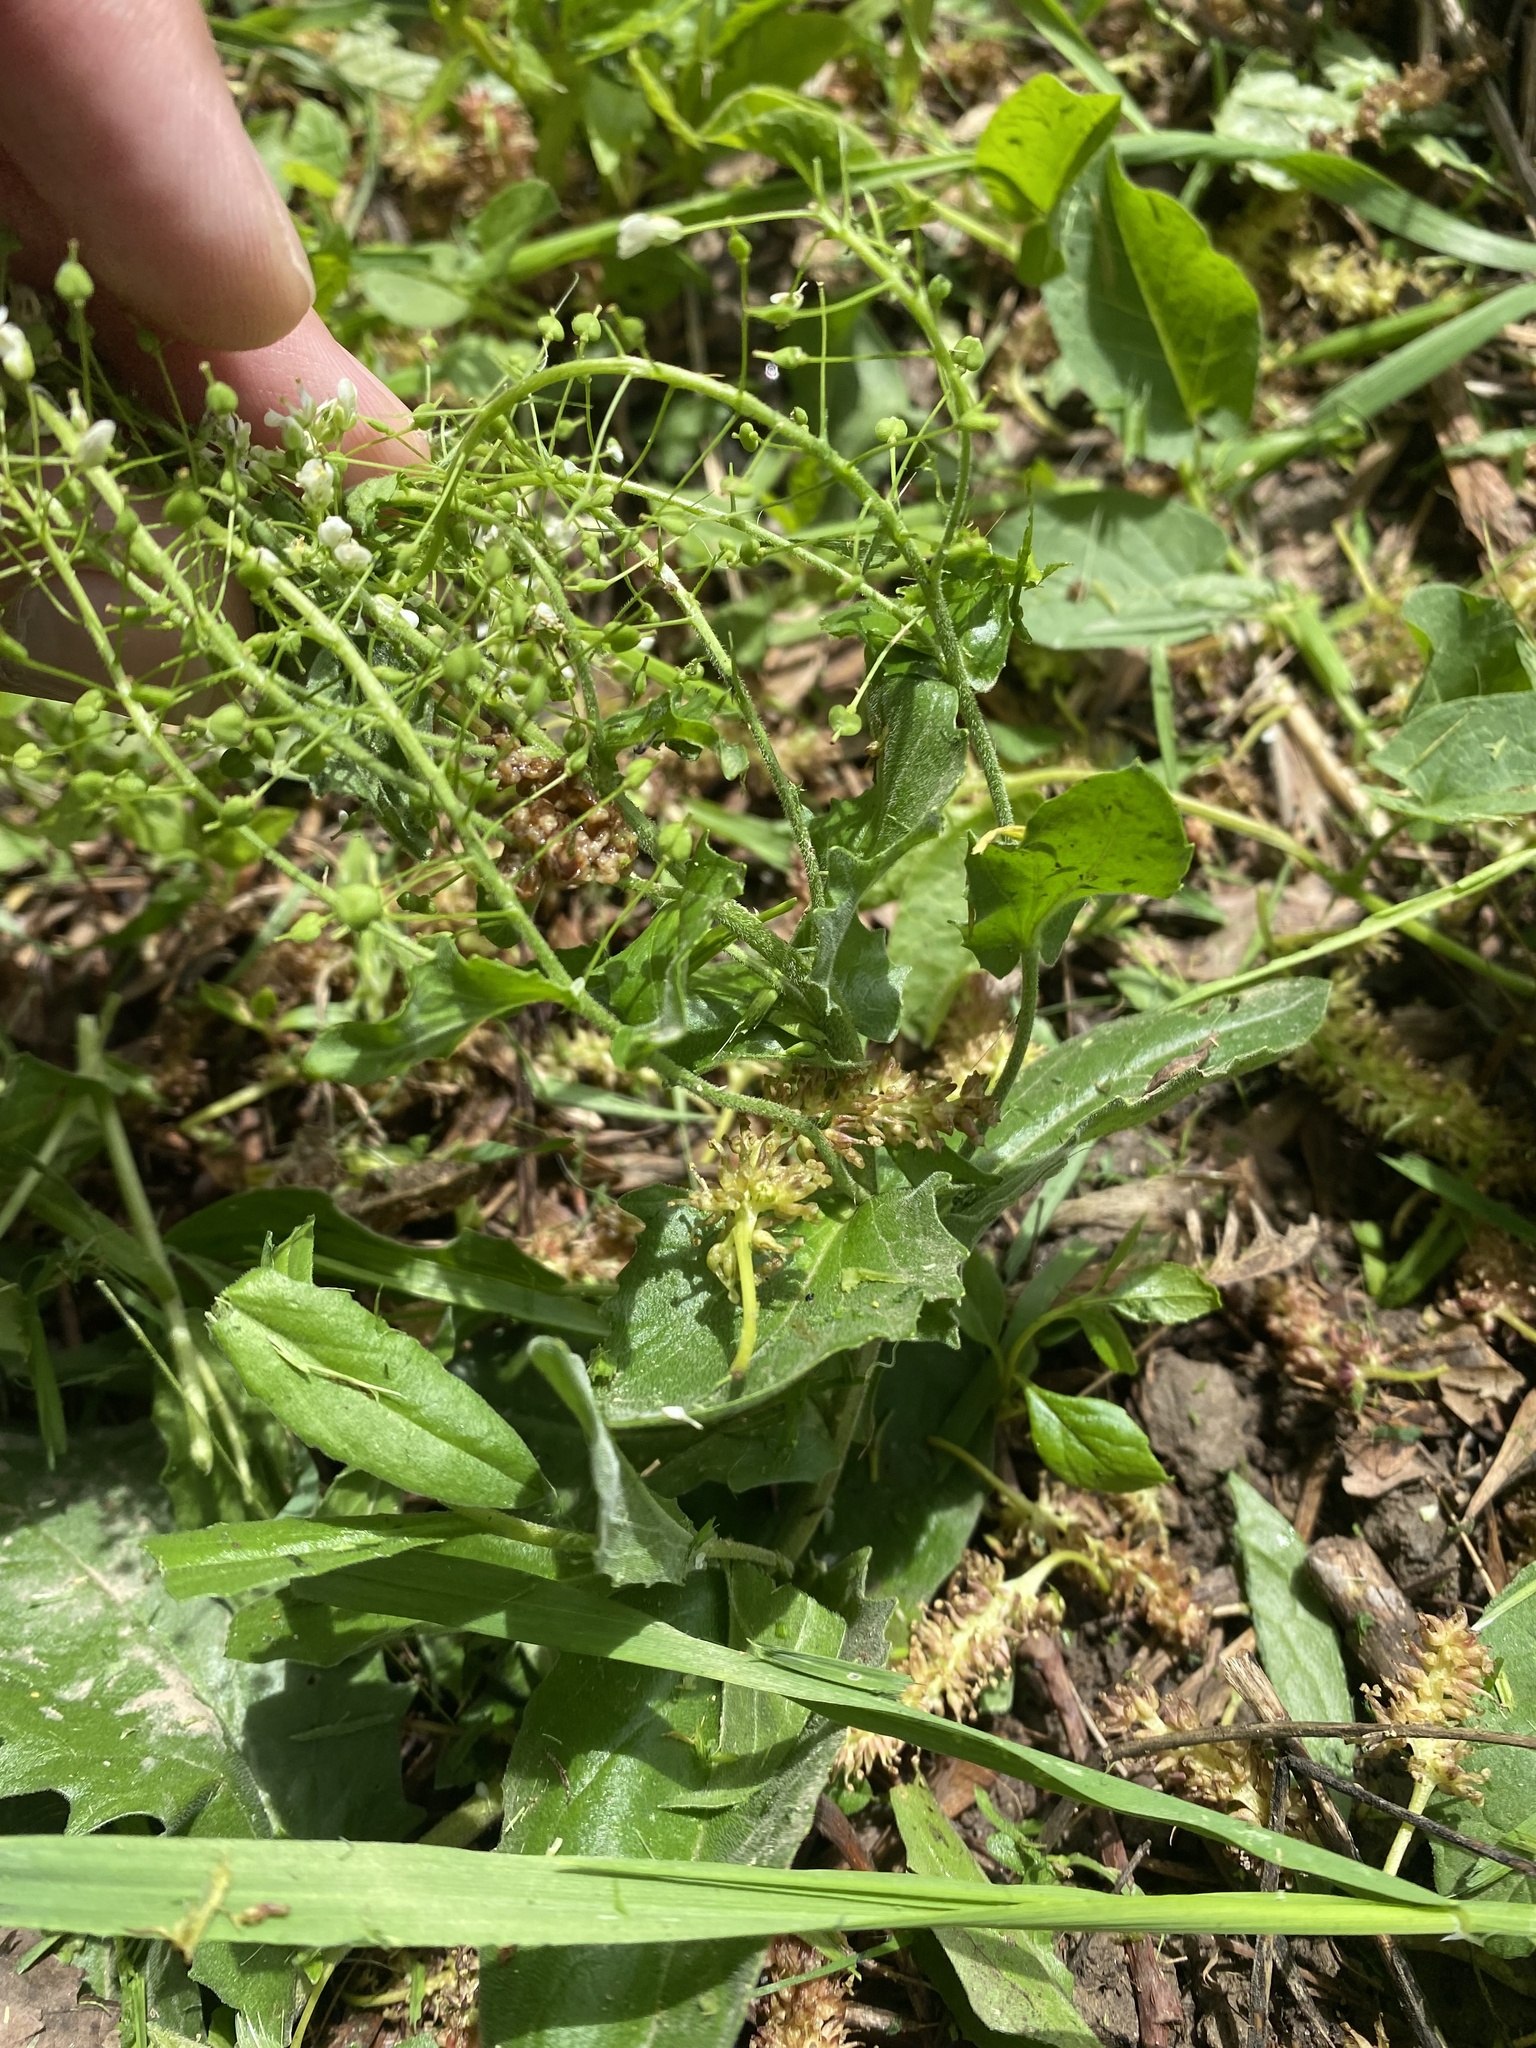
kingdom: Plantae
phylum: Tracheophyta
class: Magnoliopsida
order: Brassicales
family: Brassicaceae
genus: Lepidium
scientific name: Lepidium draba
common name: Hoary cress
